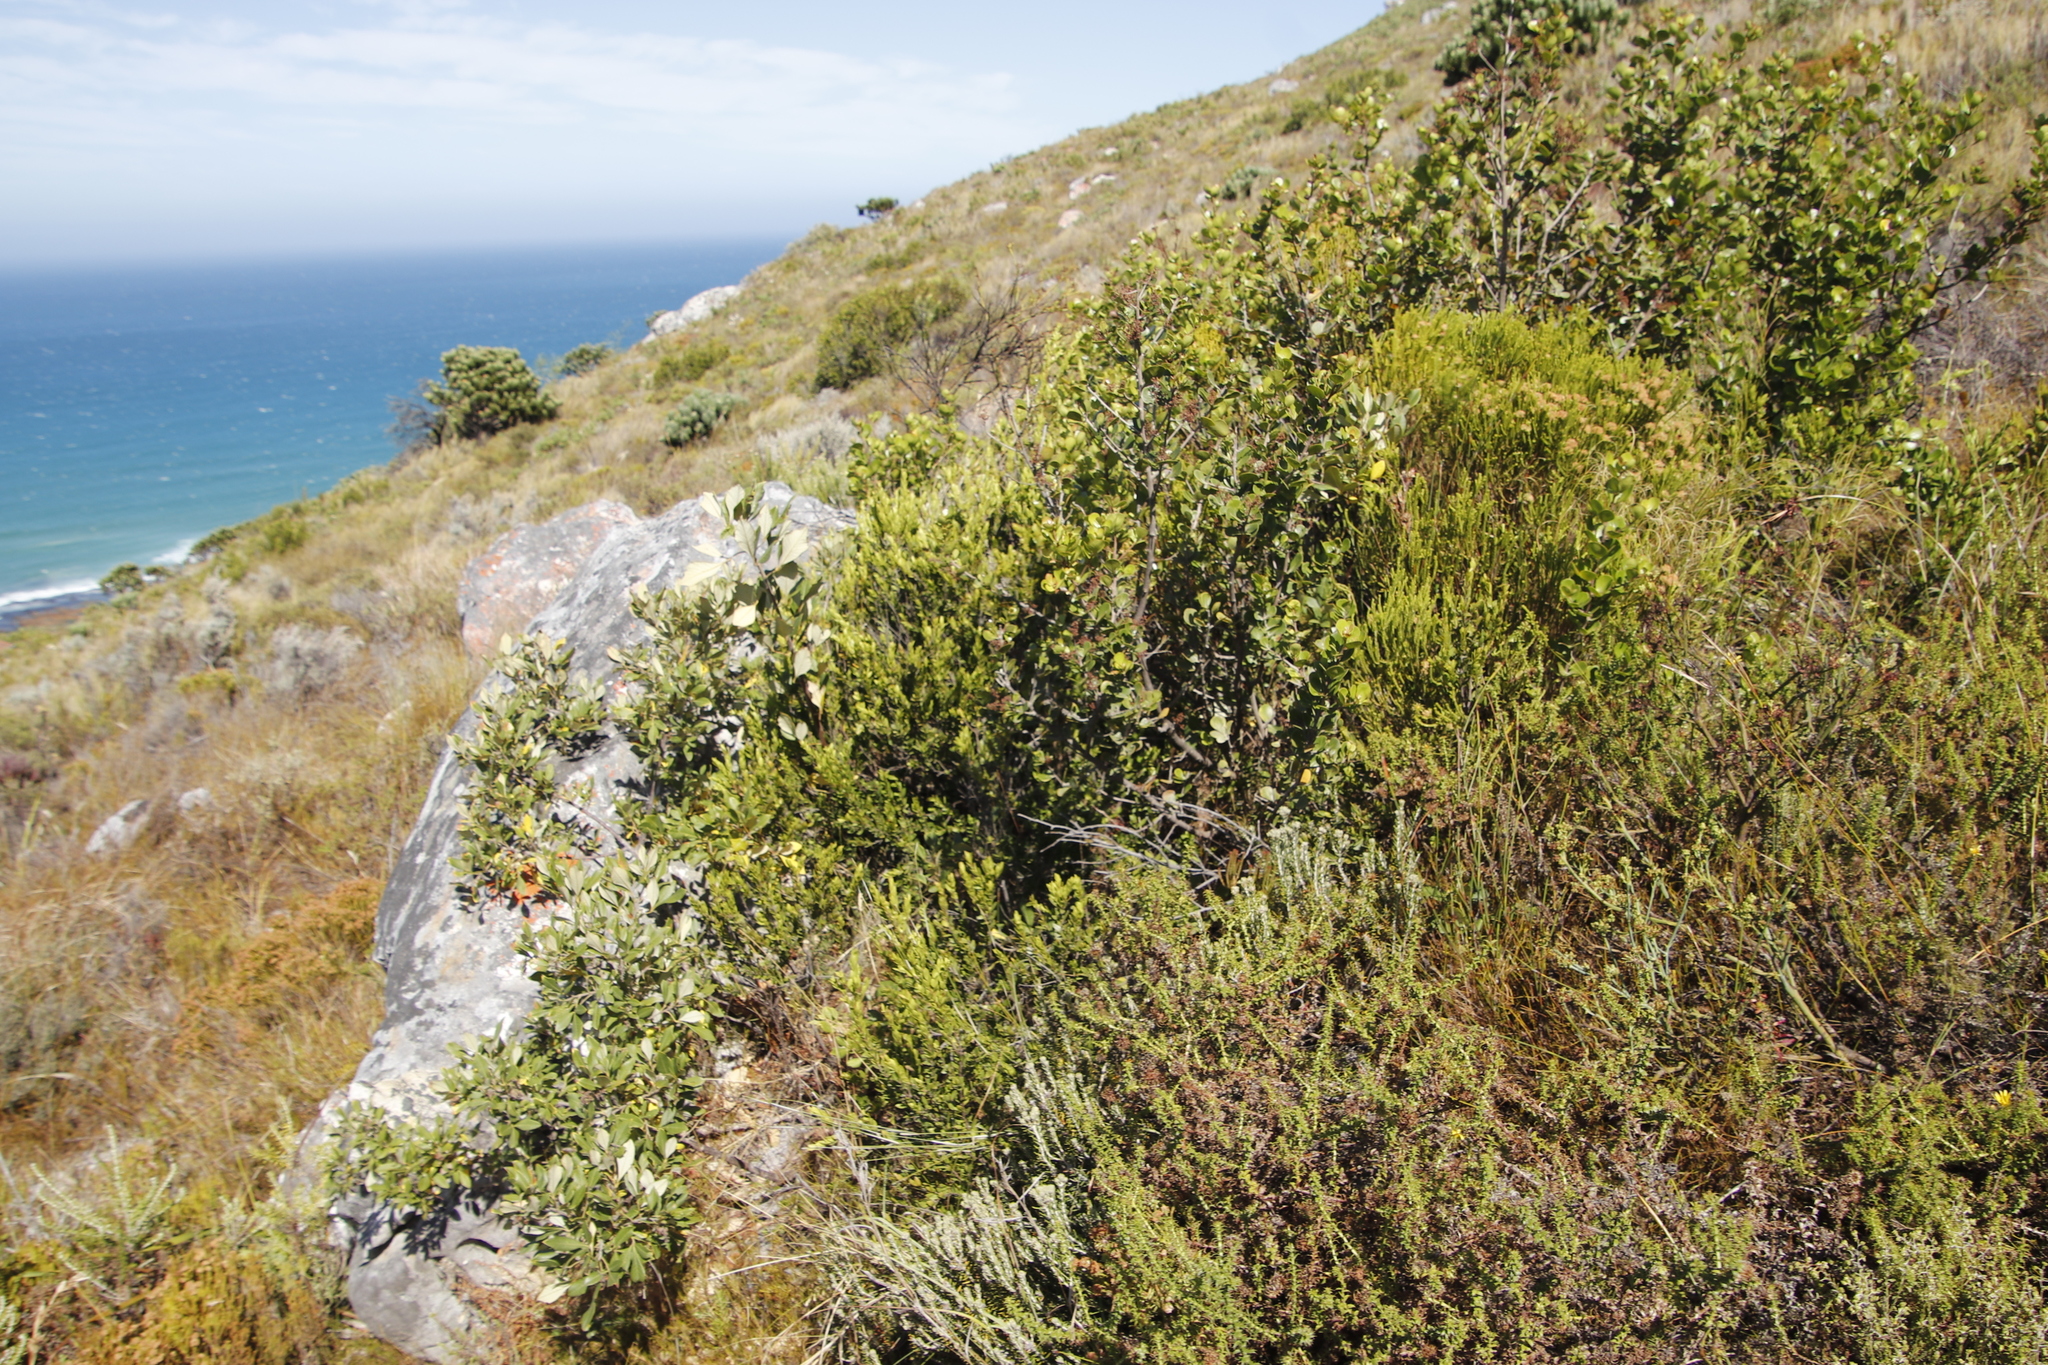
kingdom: Plantae
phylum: Tracheophyta
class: Magnoliopsida
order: Sapindales
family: Anacardiaceae
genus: Searsia
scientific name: Searsia lucida
